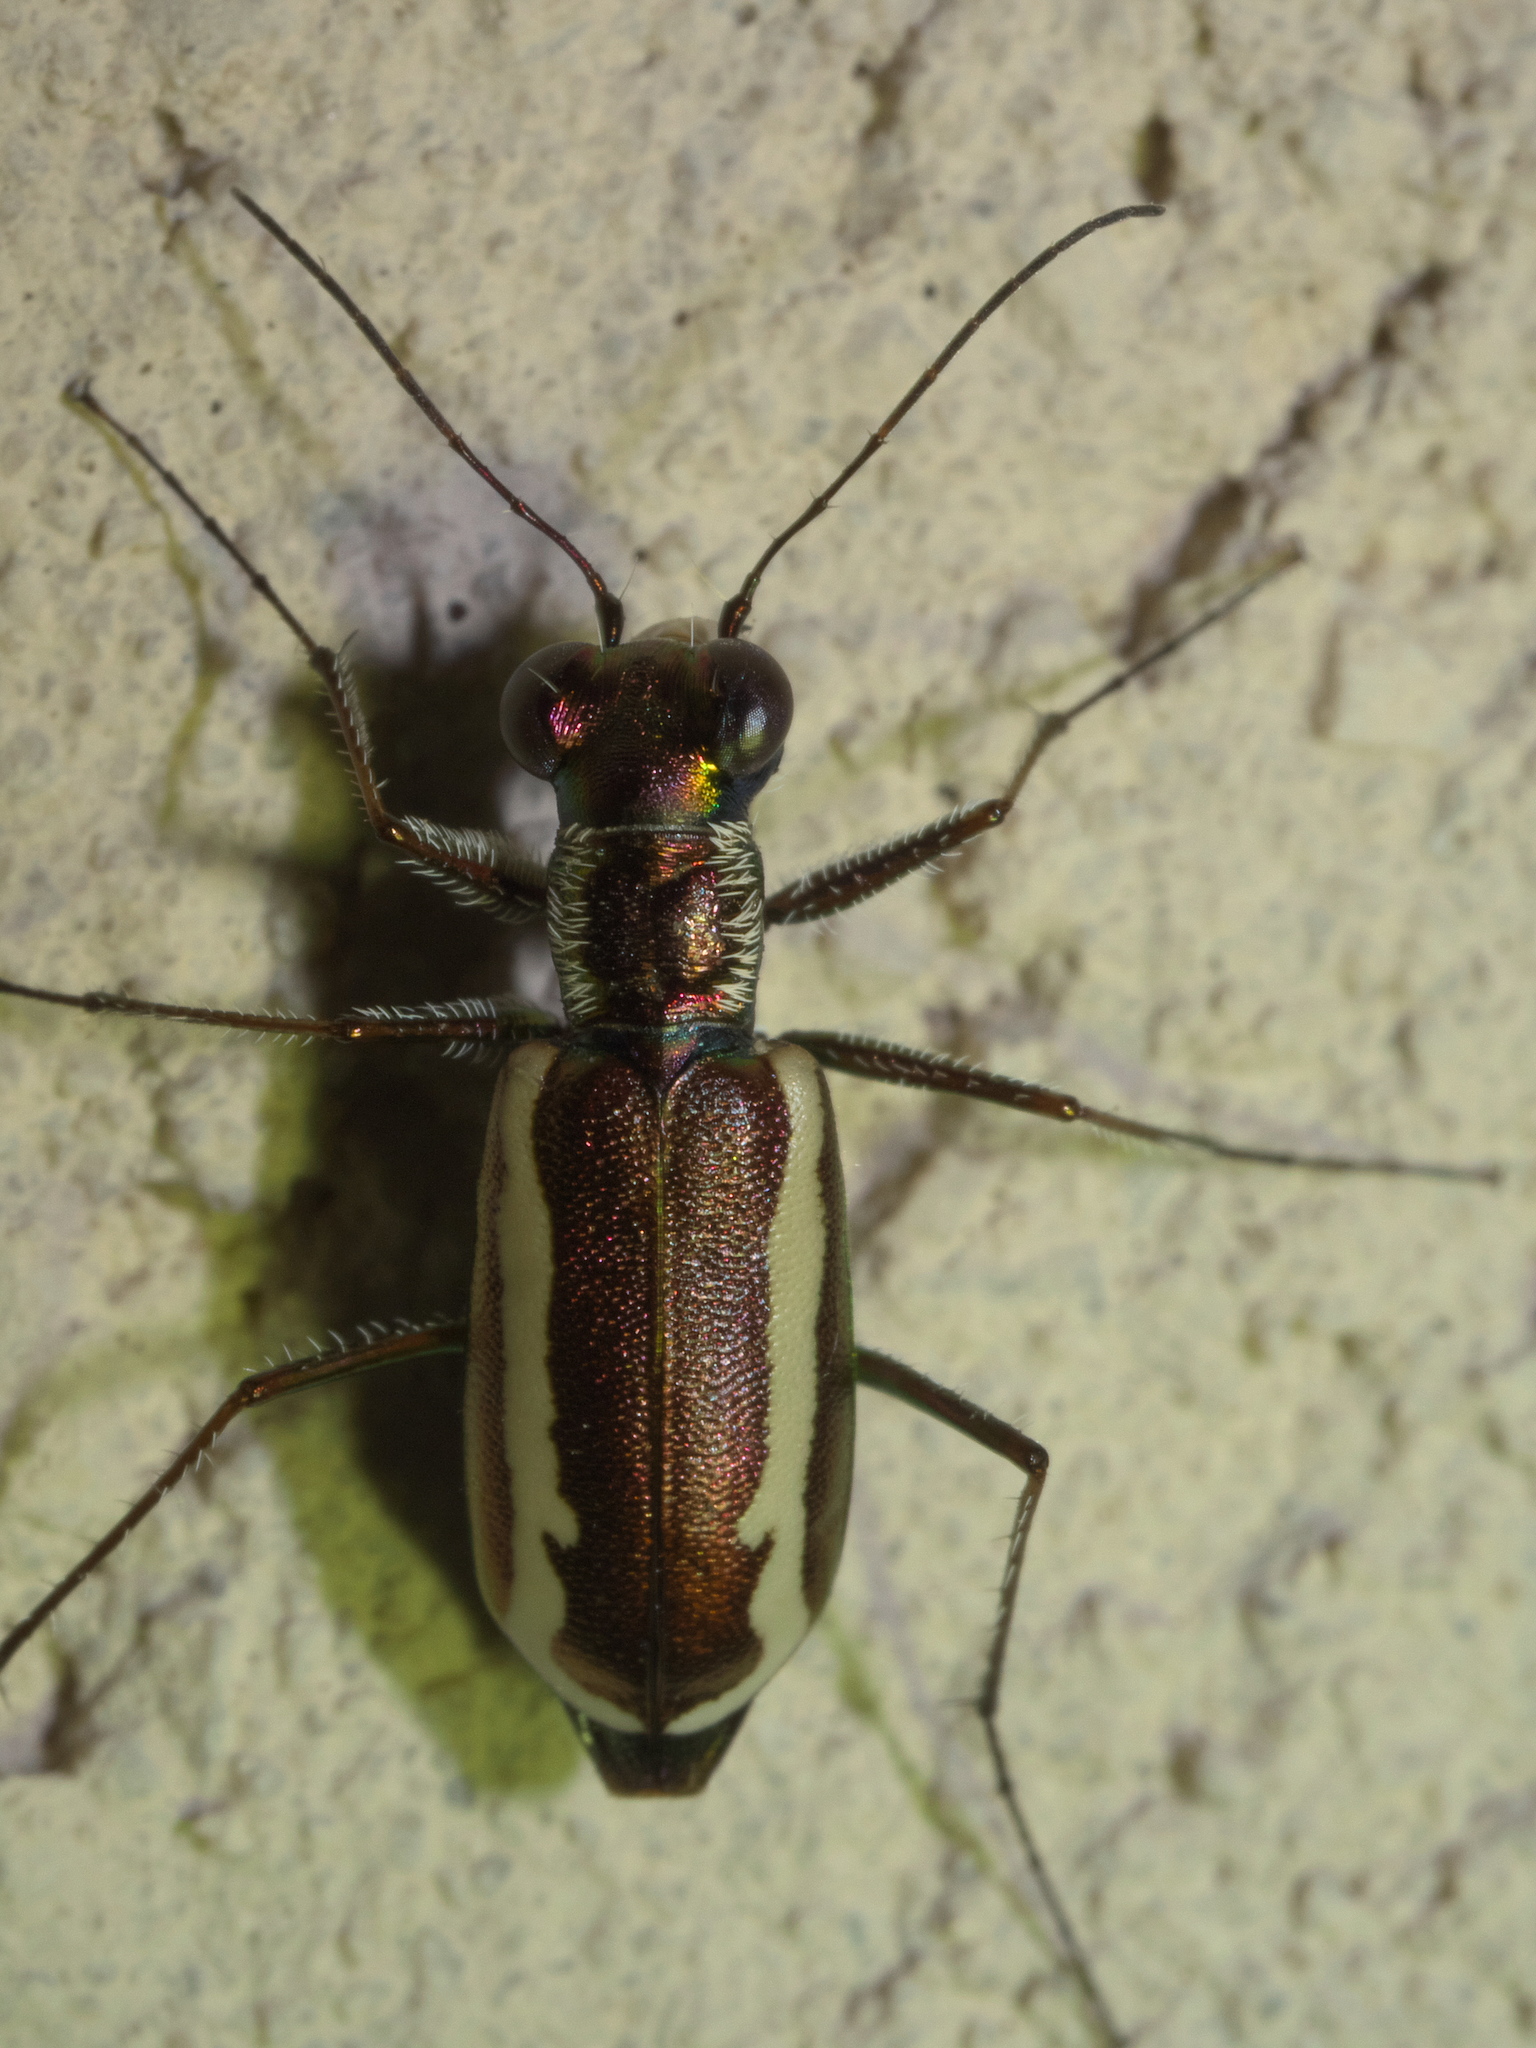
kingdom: Animalia
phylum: Arthropoda
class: Insecta
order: Coleoptera
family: Carabidae
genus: Cylindera
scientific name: Cylindera lemniscata
